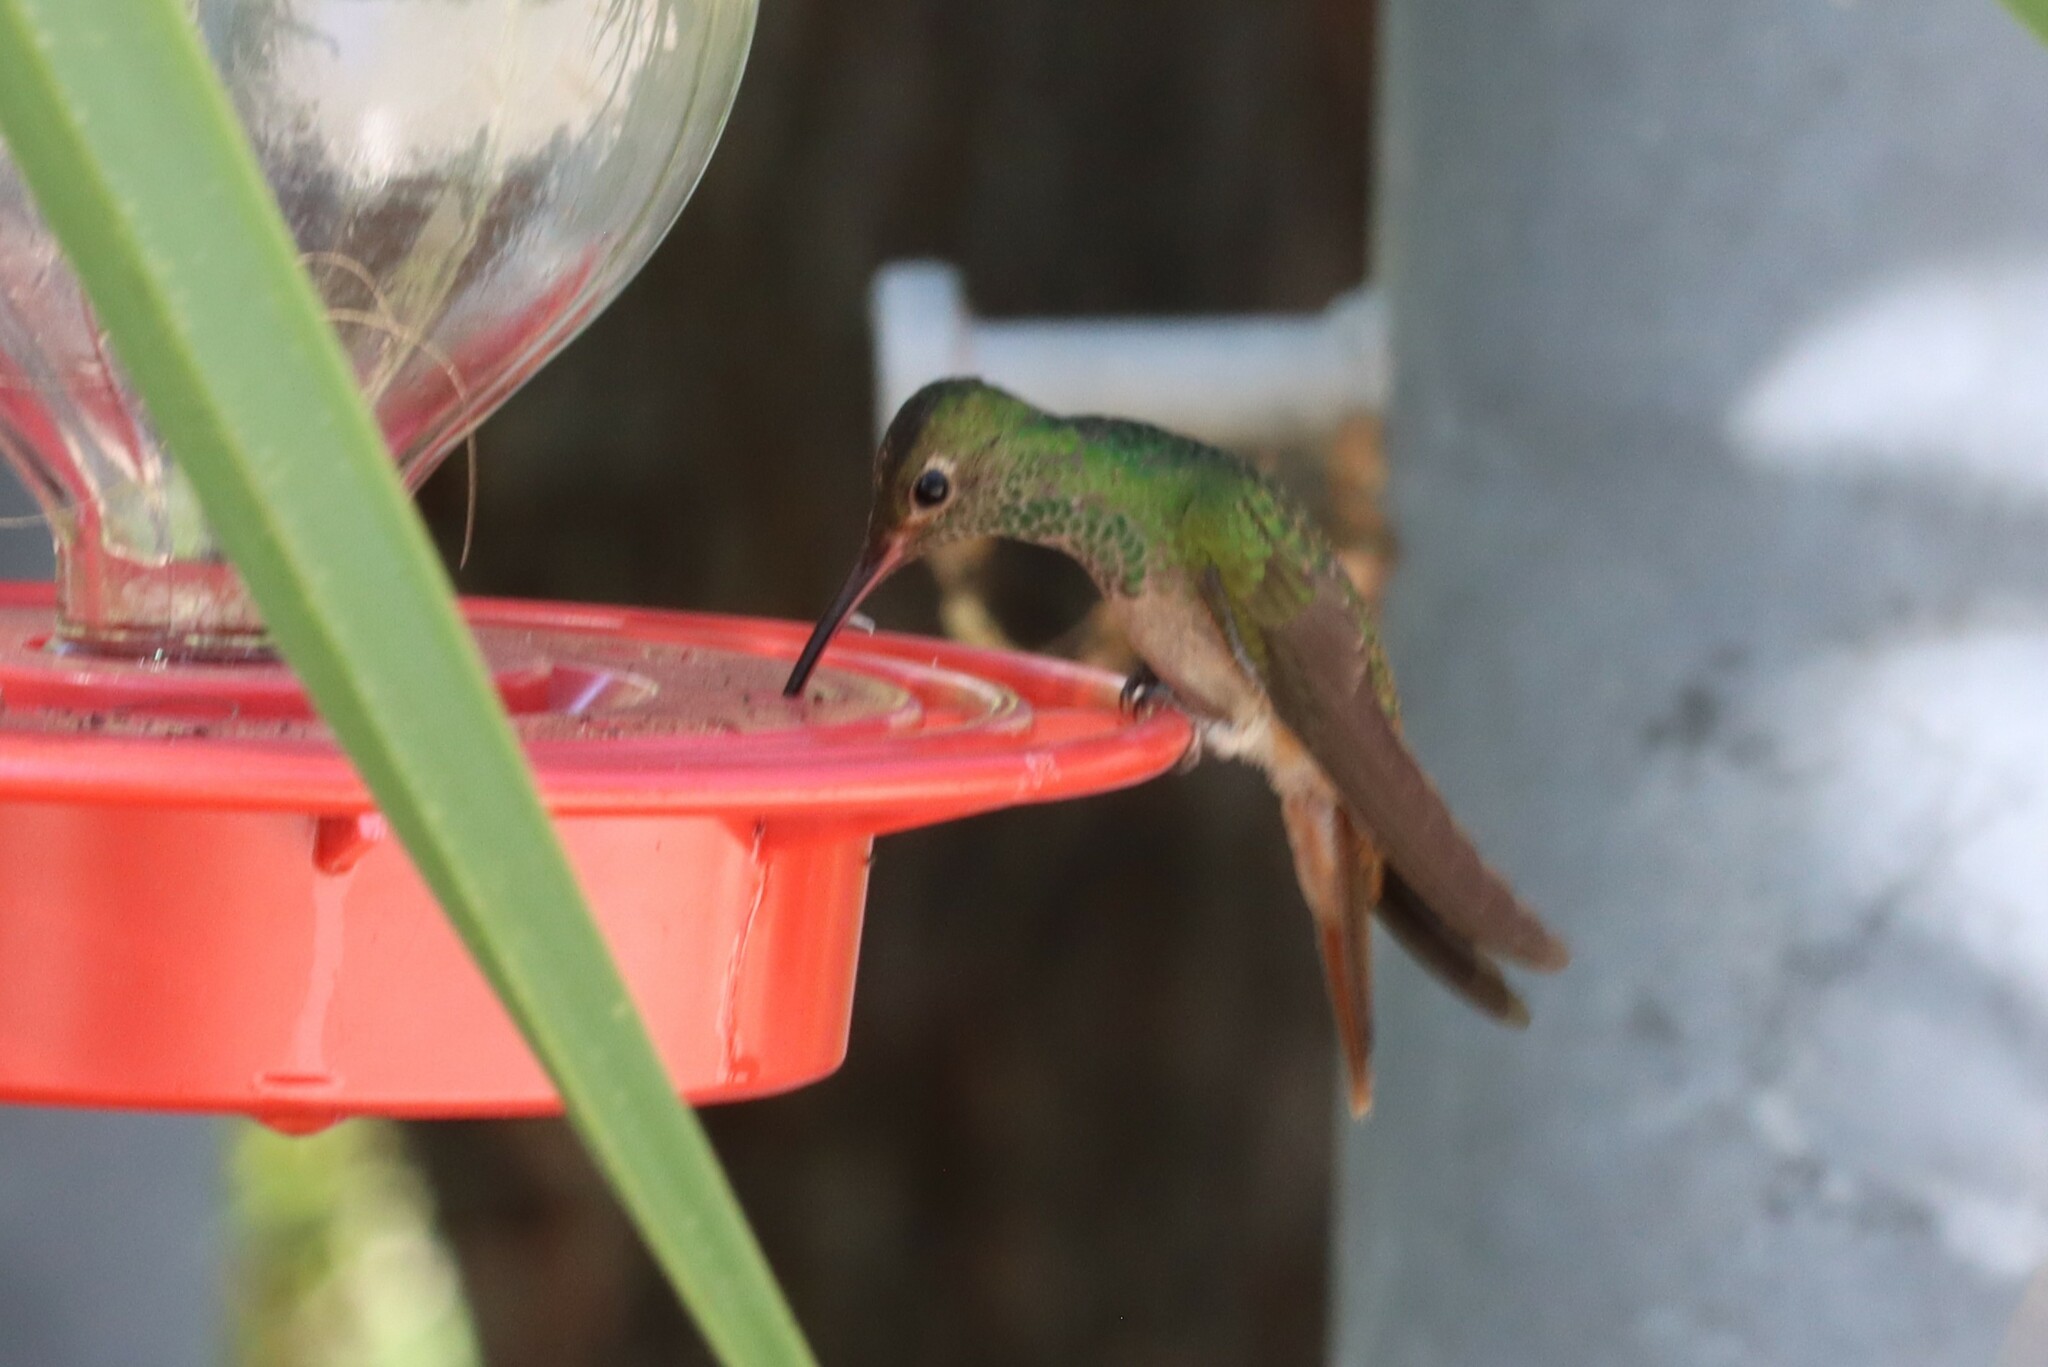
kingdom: Animalia
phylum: Chordata
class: Aves
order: Apodiformes
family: Trochilidae
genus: Amazilia
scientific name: Amazilia yucatanensis
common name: Buff-bellied hummingbird
